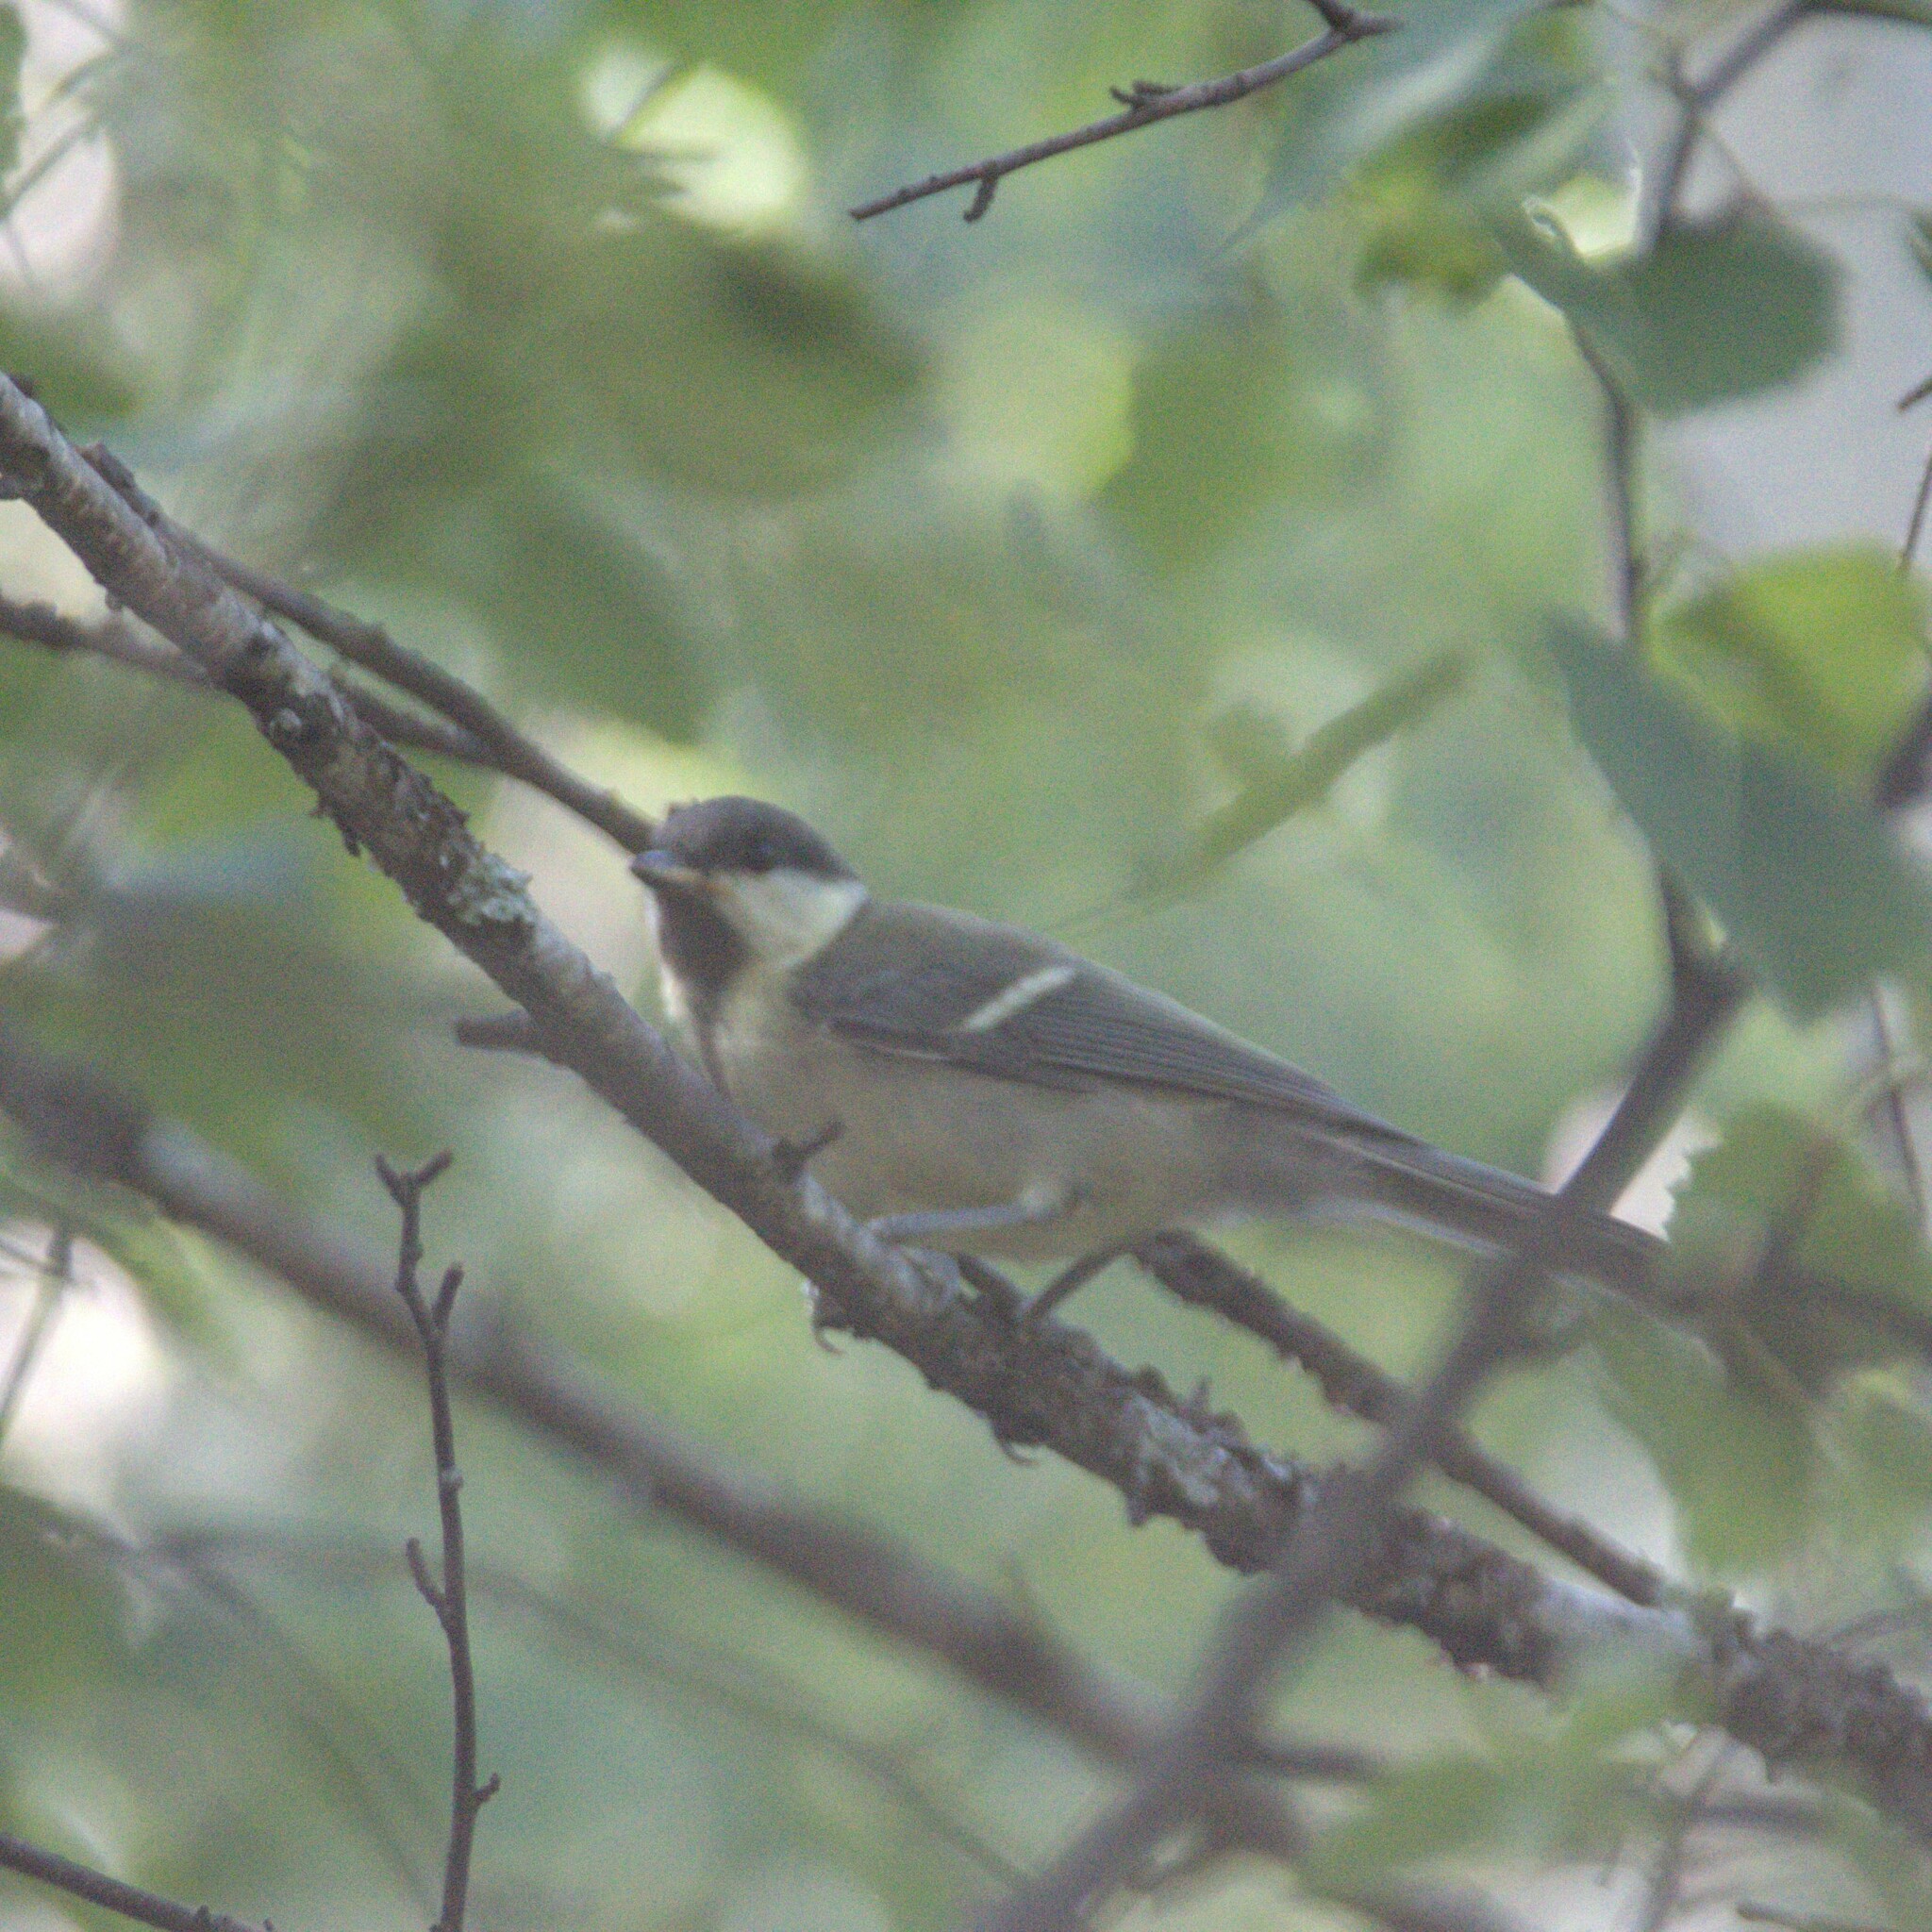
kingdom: Animalia
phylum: Chordata
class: Aves
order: Passeriformes
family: Paridae
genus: Parus
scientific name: Parus major
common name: Great tit
